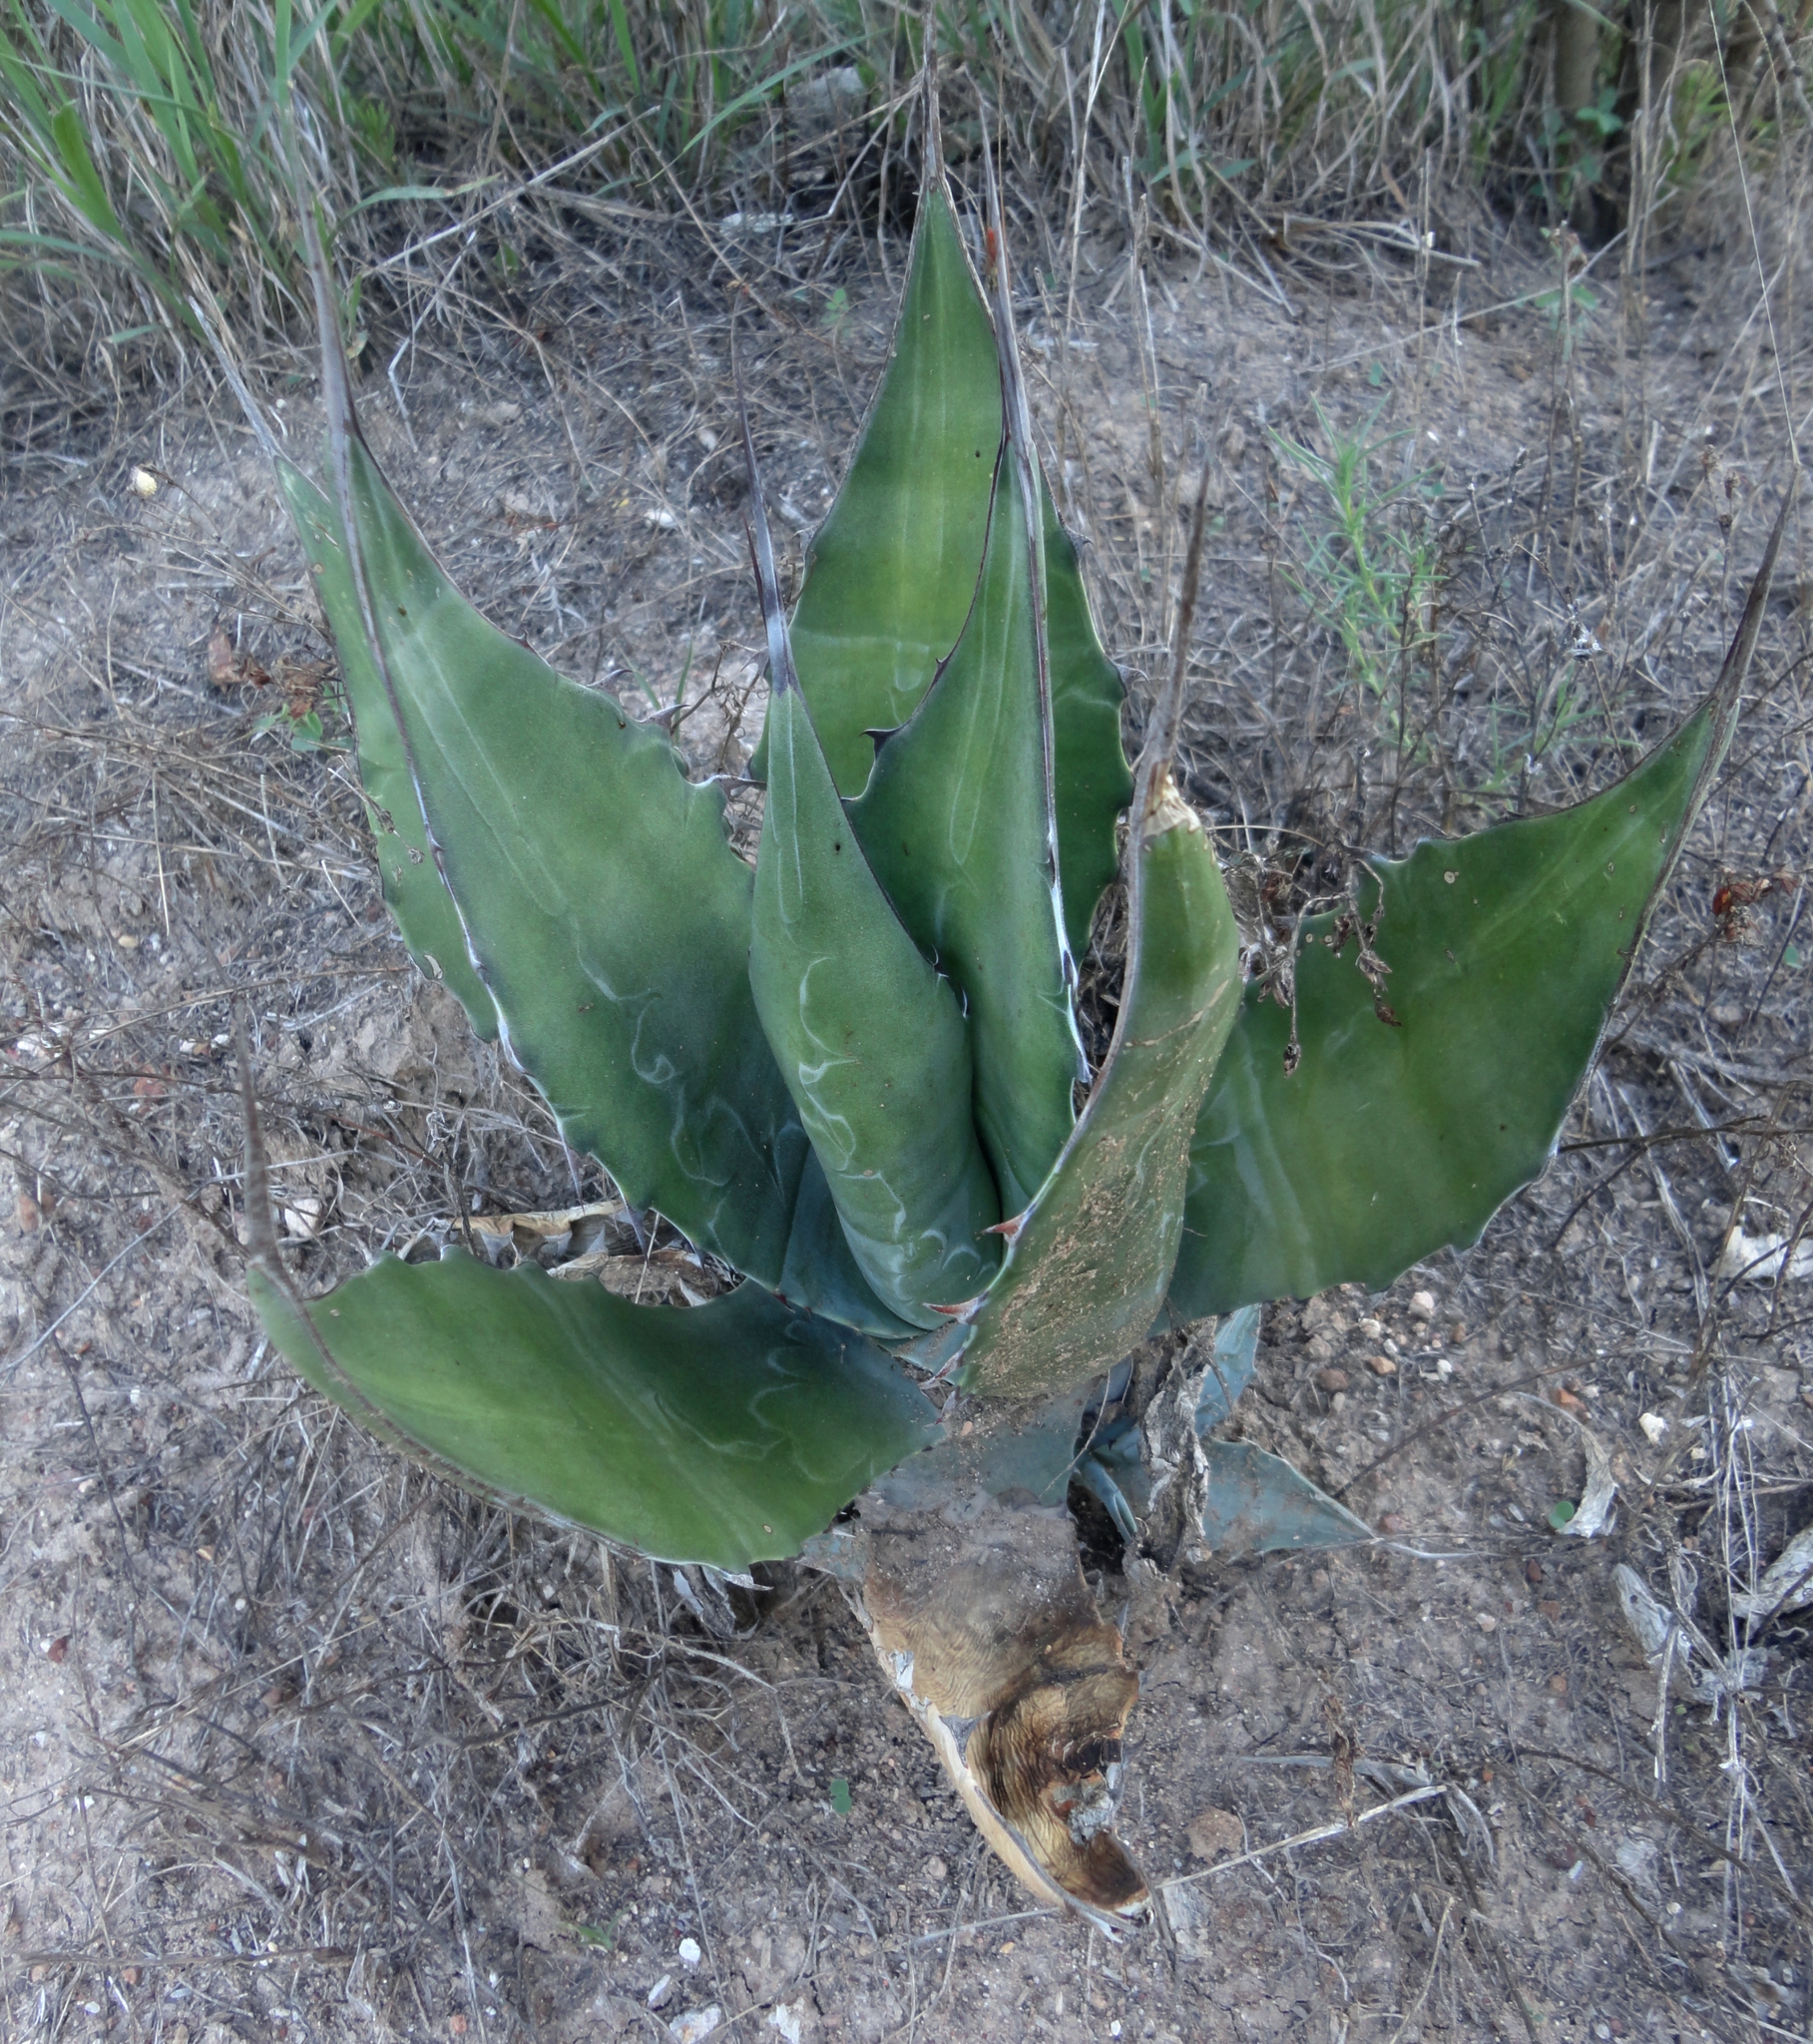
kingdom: Plantae
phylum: Tracheophyta
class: Liliopsida
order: Asparagales
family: Asparagaceae
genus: Agave
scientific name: Agave salmiana
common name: Pulque agave
